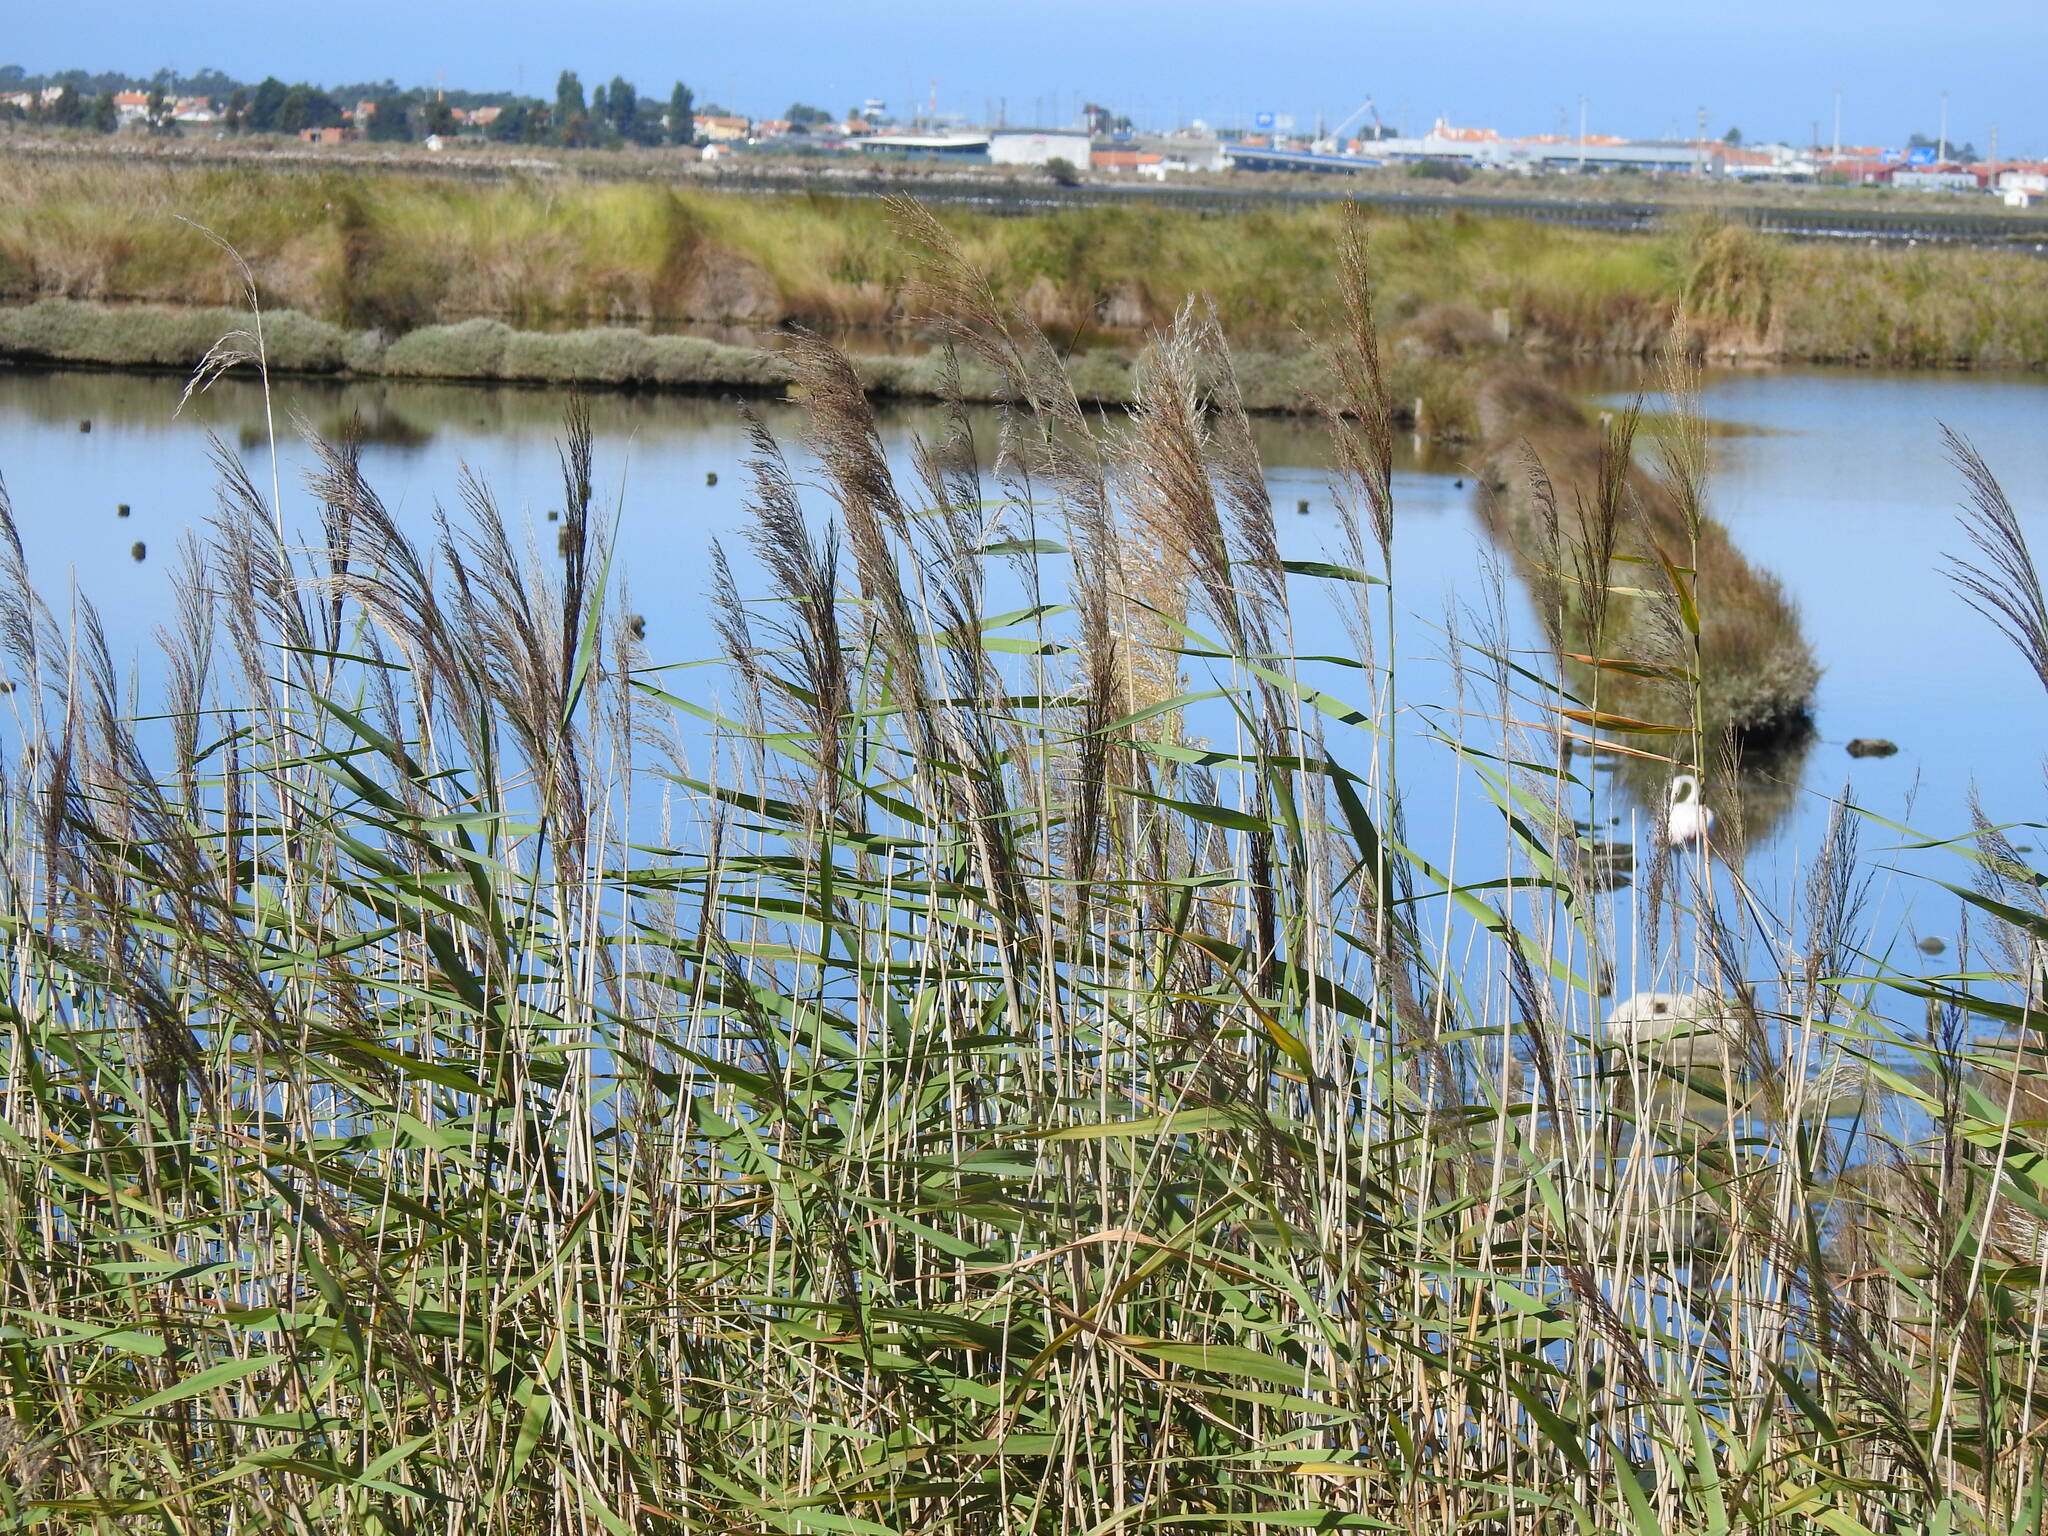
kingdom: Plantae
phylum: Tracheophyta
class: Liliopsida
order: Poales
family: Poaceae
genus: Phragmites
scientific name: Phragmites australis
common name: Common reed
